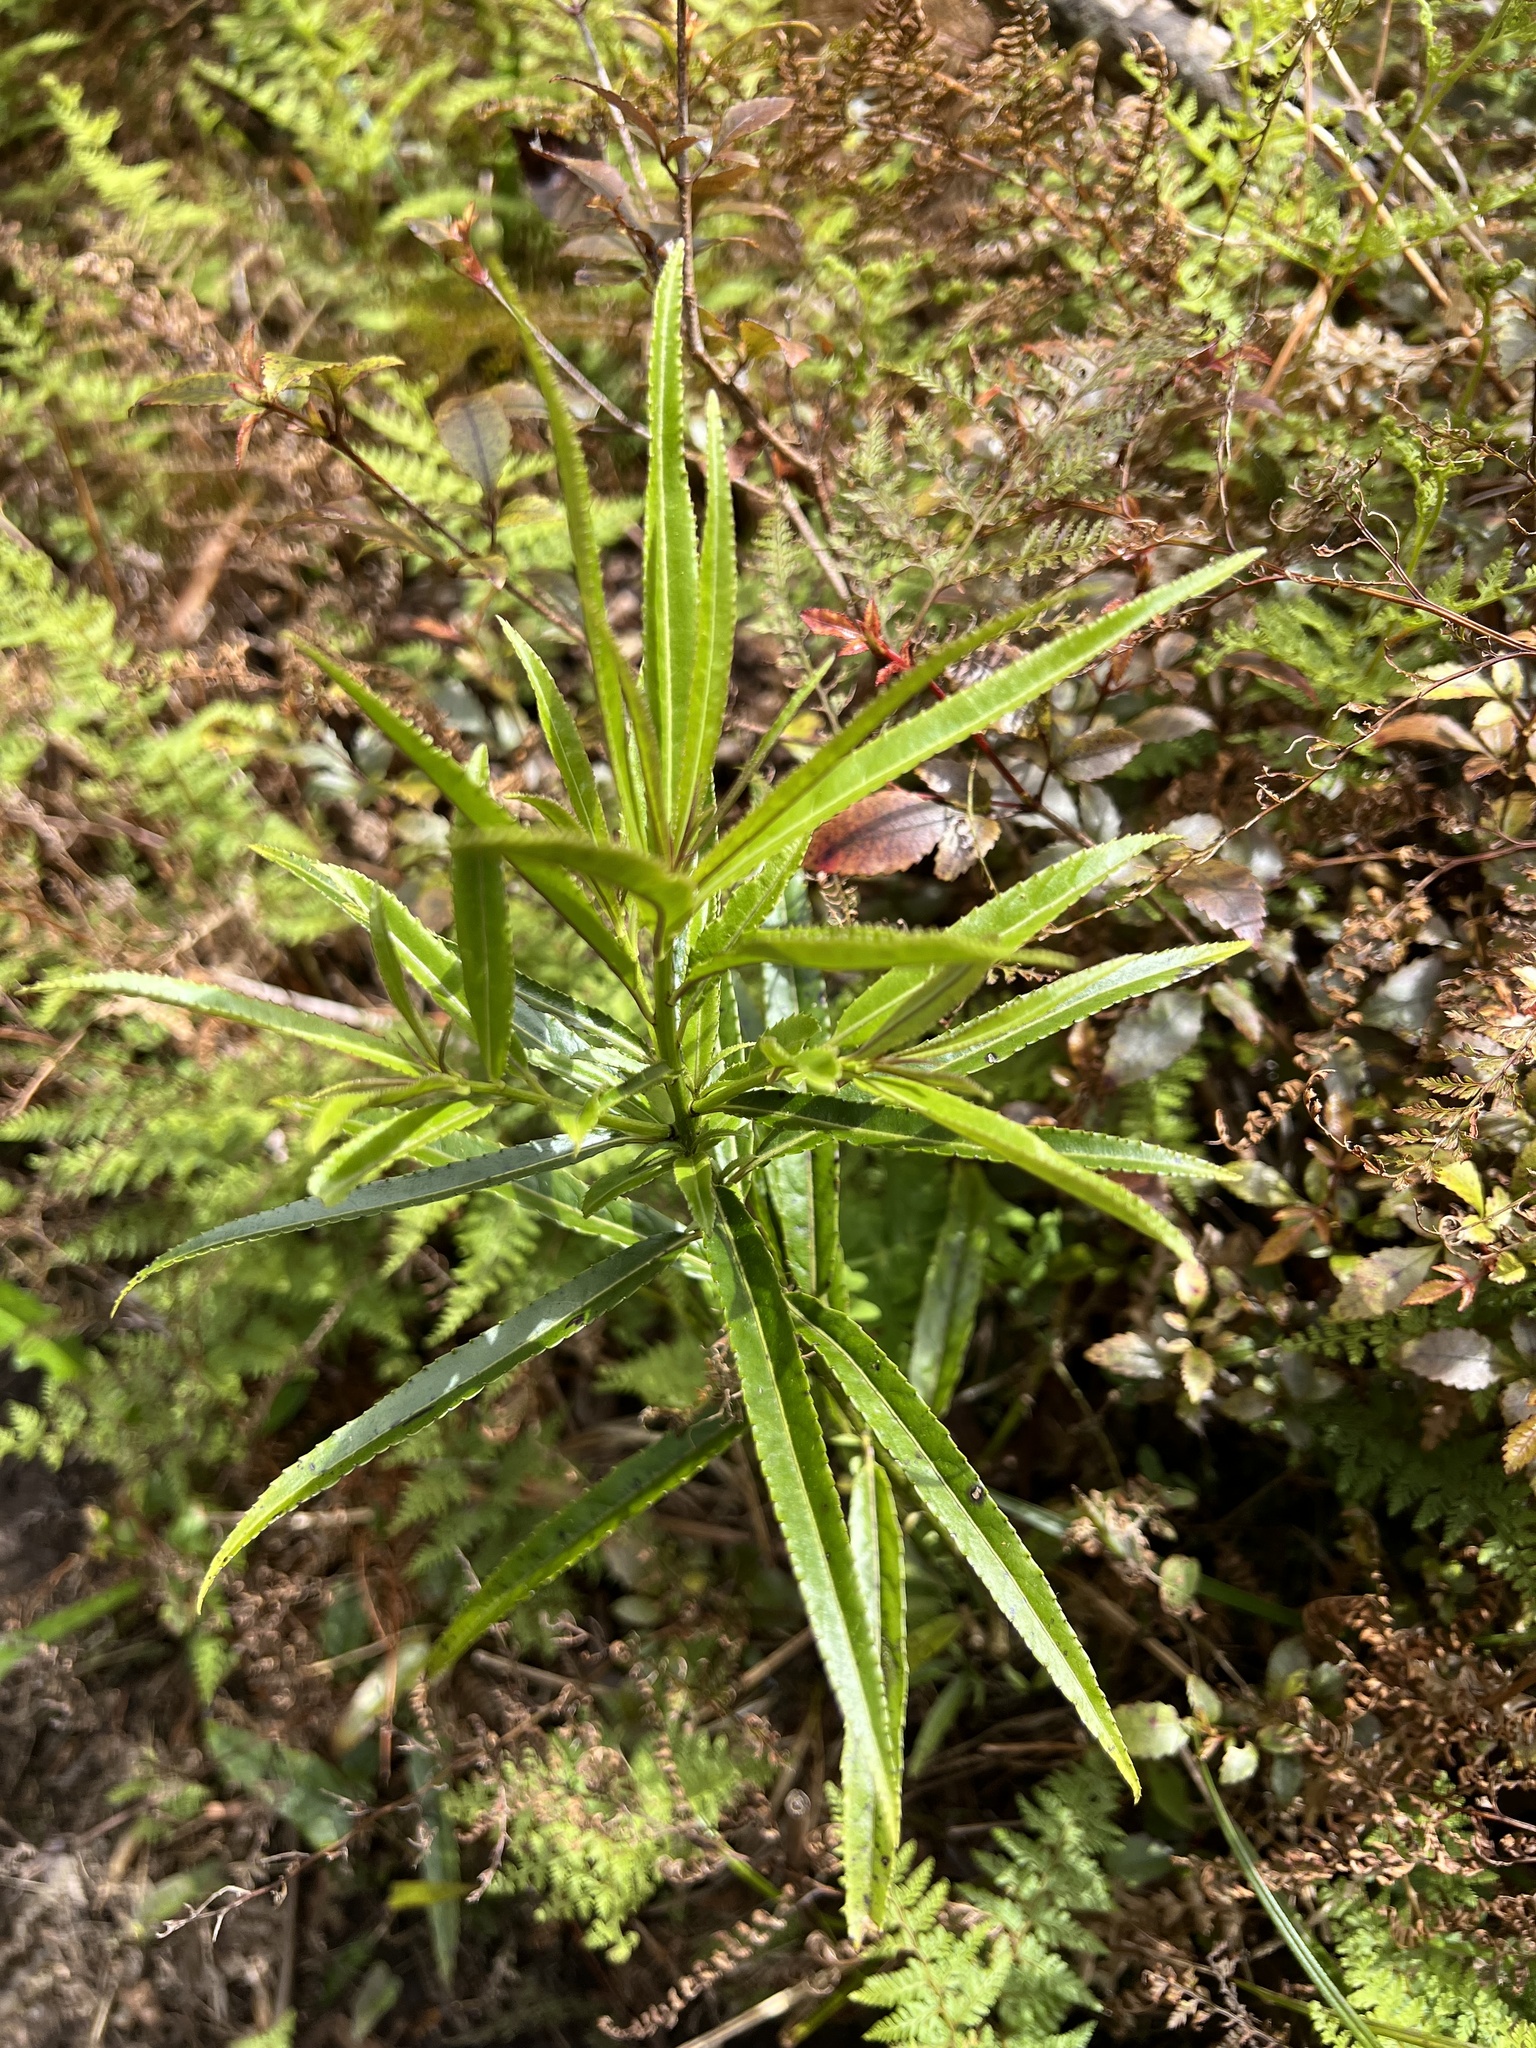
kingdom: Plantae
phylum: Tracheophyta
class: Magnoliopsida
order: Malpighiales
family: Violaceae
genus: Melicytus
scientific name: Melicytus lanceolatus
